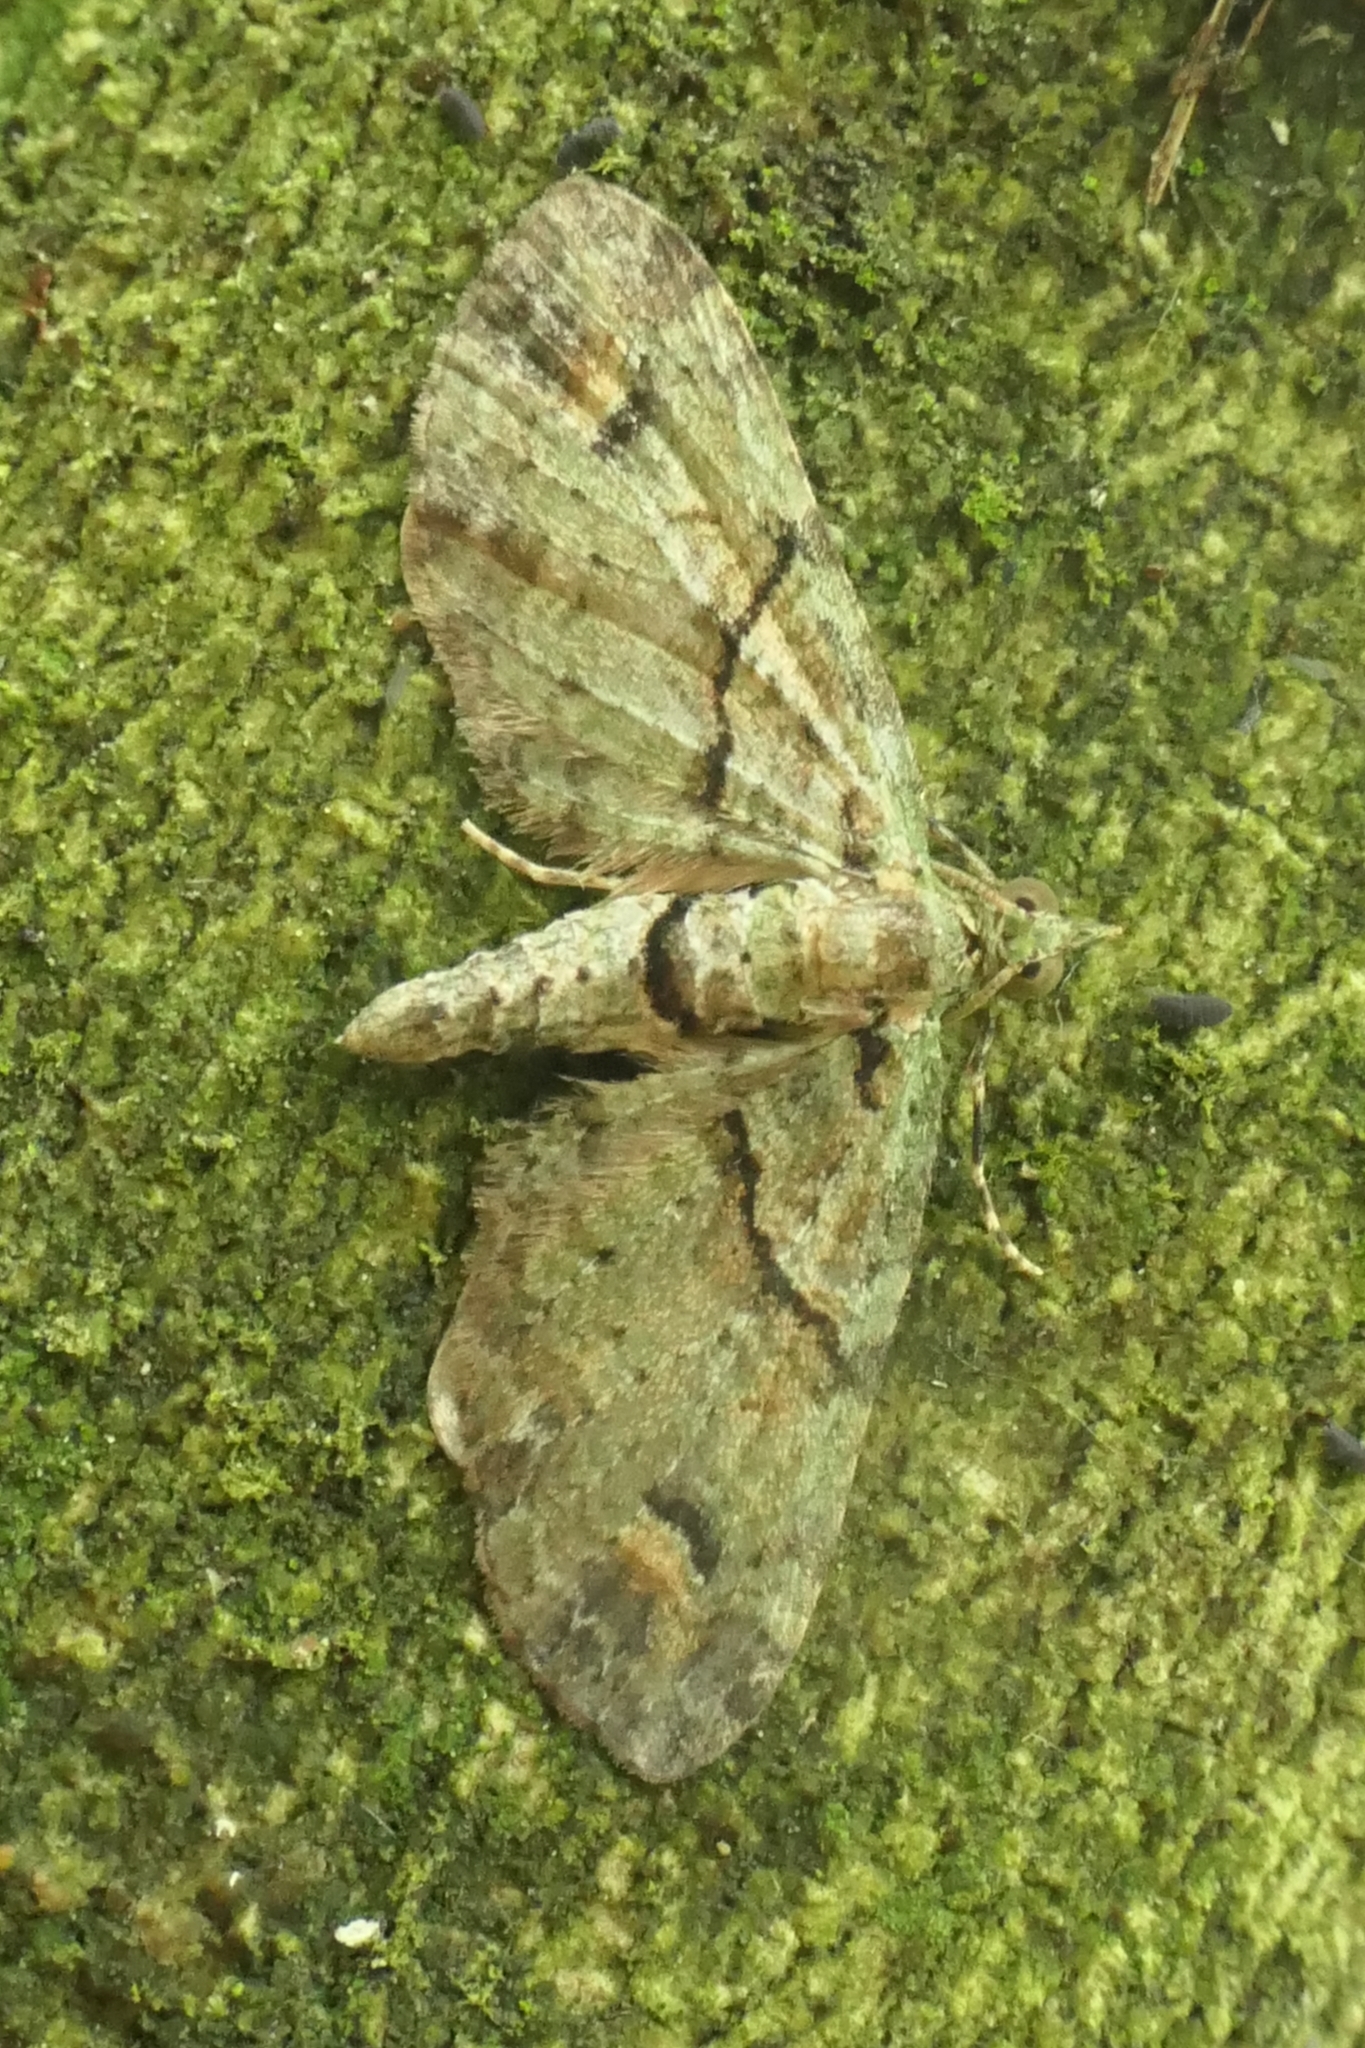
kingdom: Animalia
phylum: Arthropoda
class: Insecta
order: Lepidoptera
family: Geometridae
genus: Idaea
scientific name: Idaea mutanda
